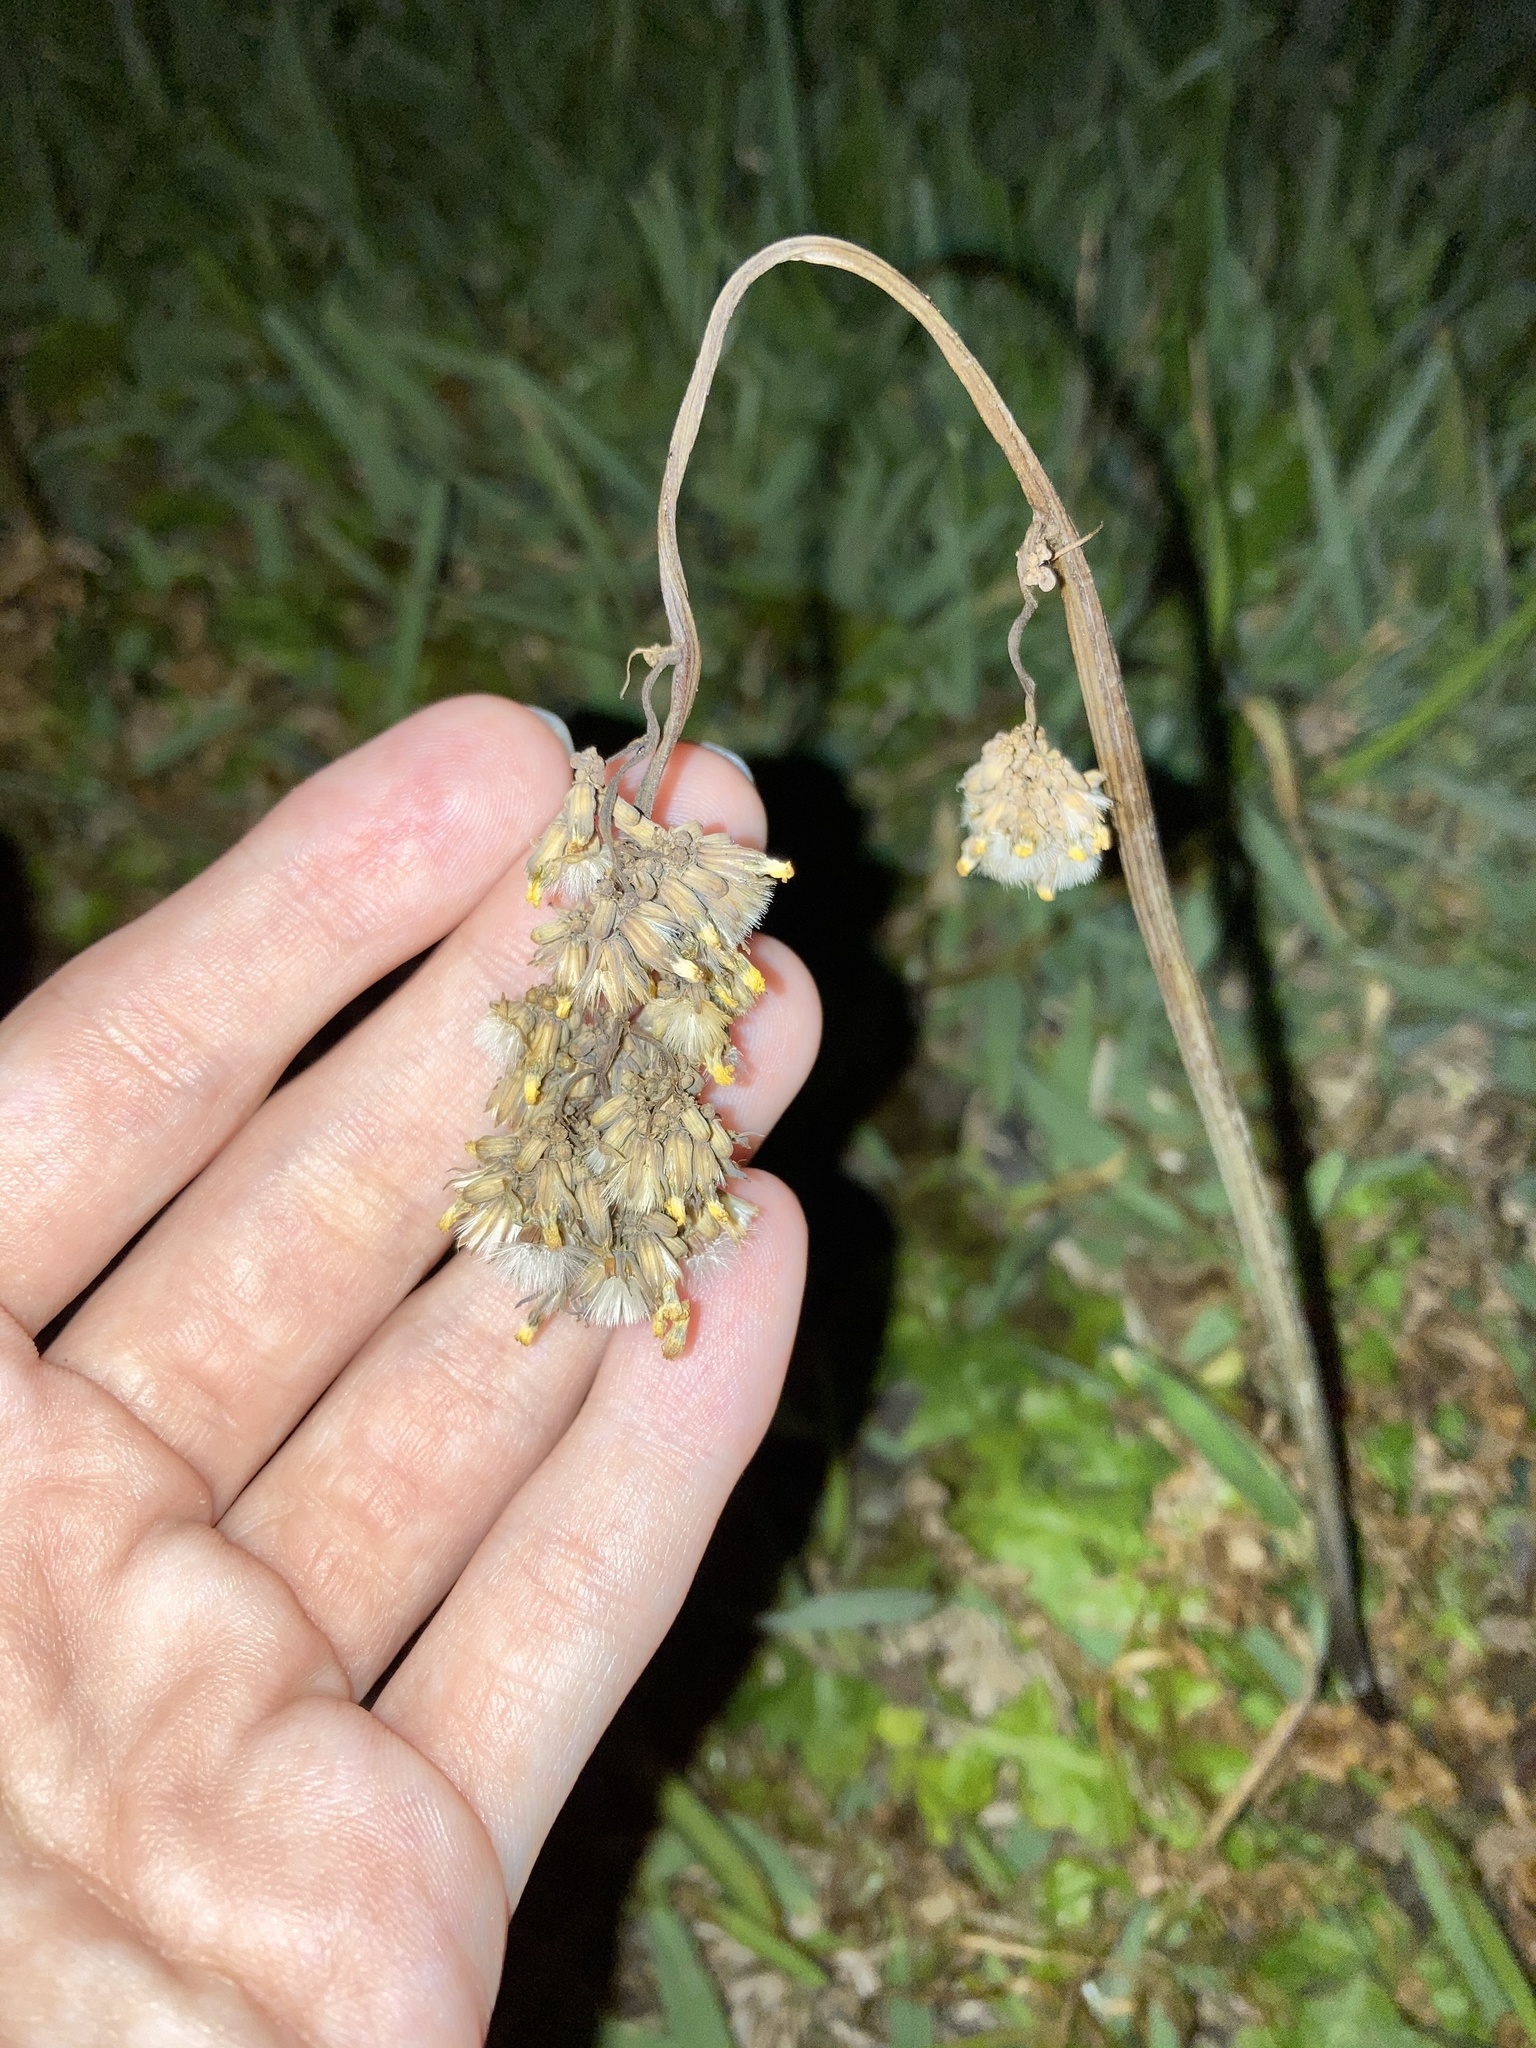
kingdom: Plantae
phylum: Tracheophyta
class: Magnoliopsida
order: Asterales
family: Asteraceae
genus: Youngia
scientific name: Youngia japonica
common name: Oriental false hawksbeard
